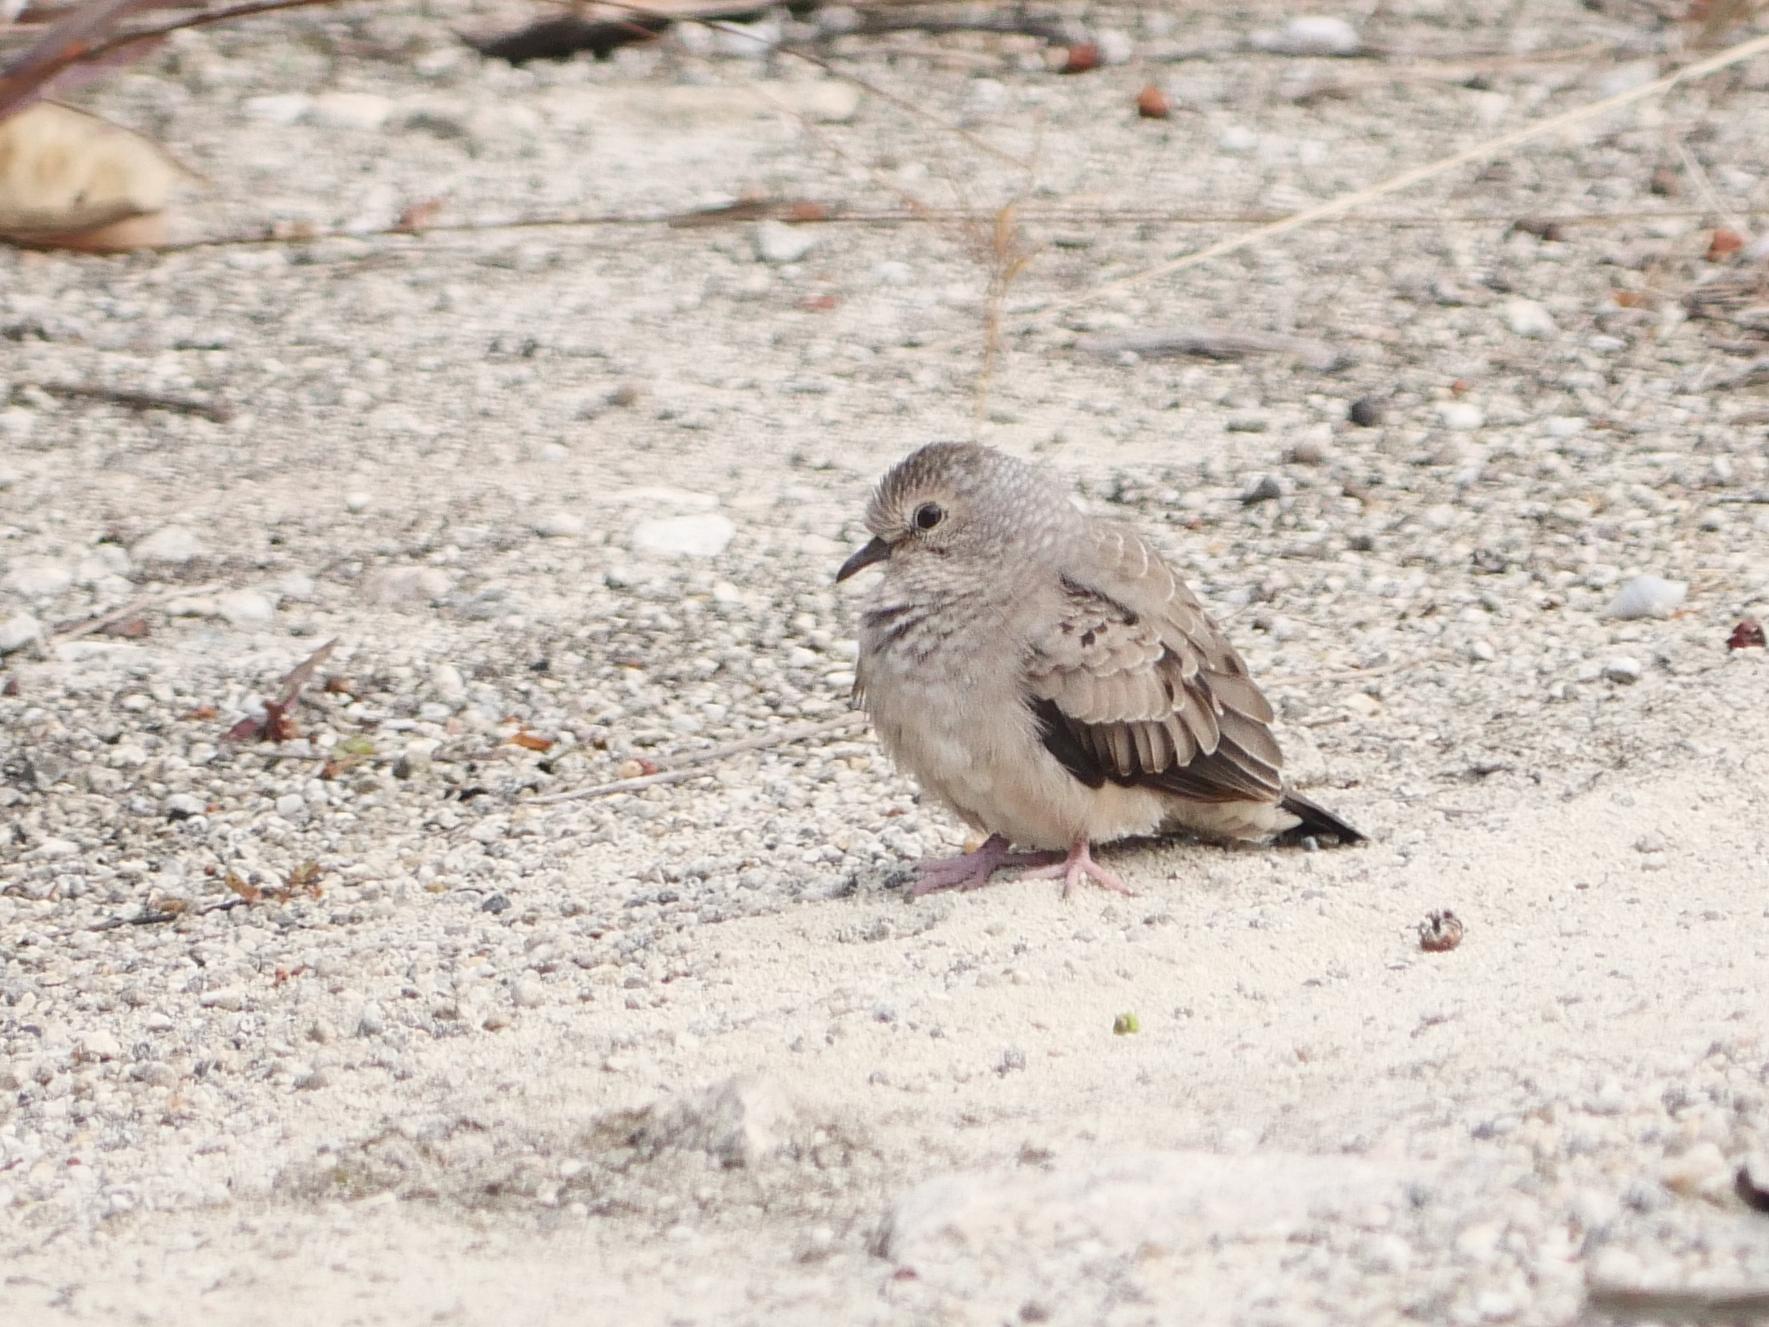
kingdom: Animalia
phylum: Chordata
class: Aves
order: Columbiformes
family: Columbidae
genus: Columbina
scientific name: Columbina passerina
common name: Common ground-dove
